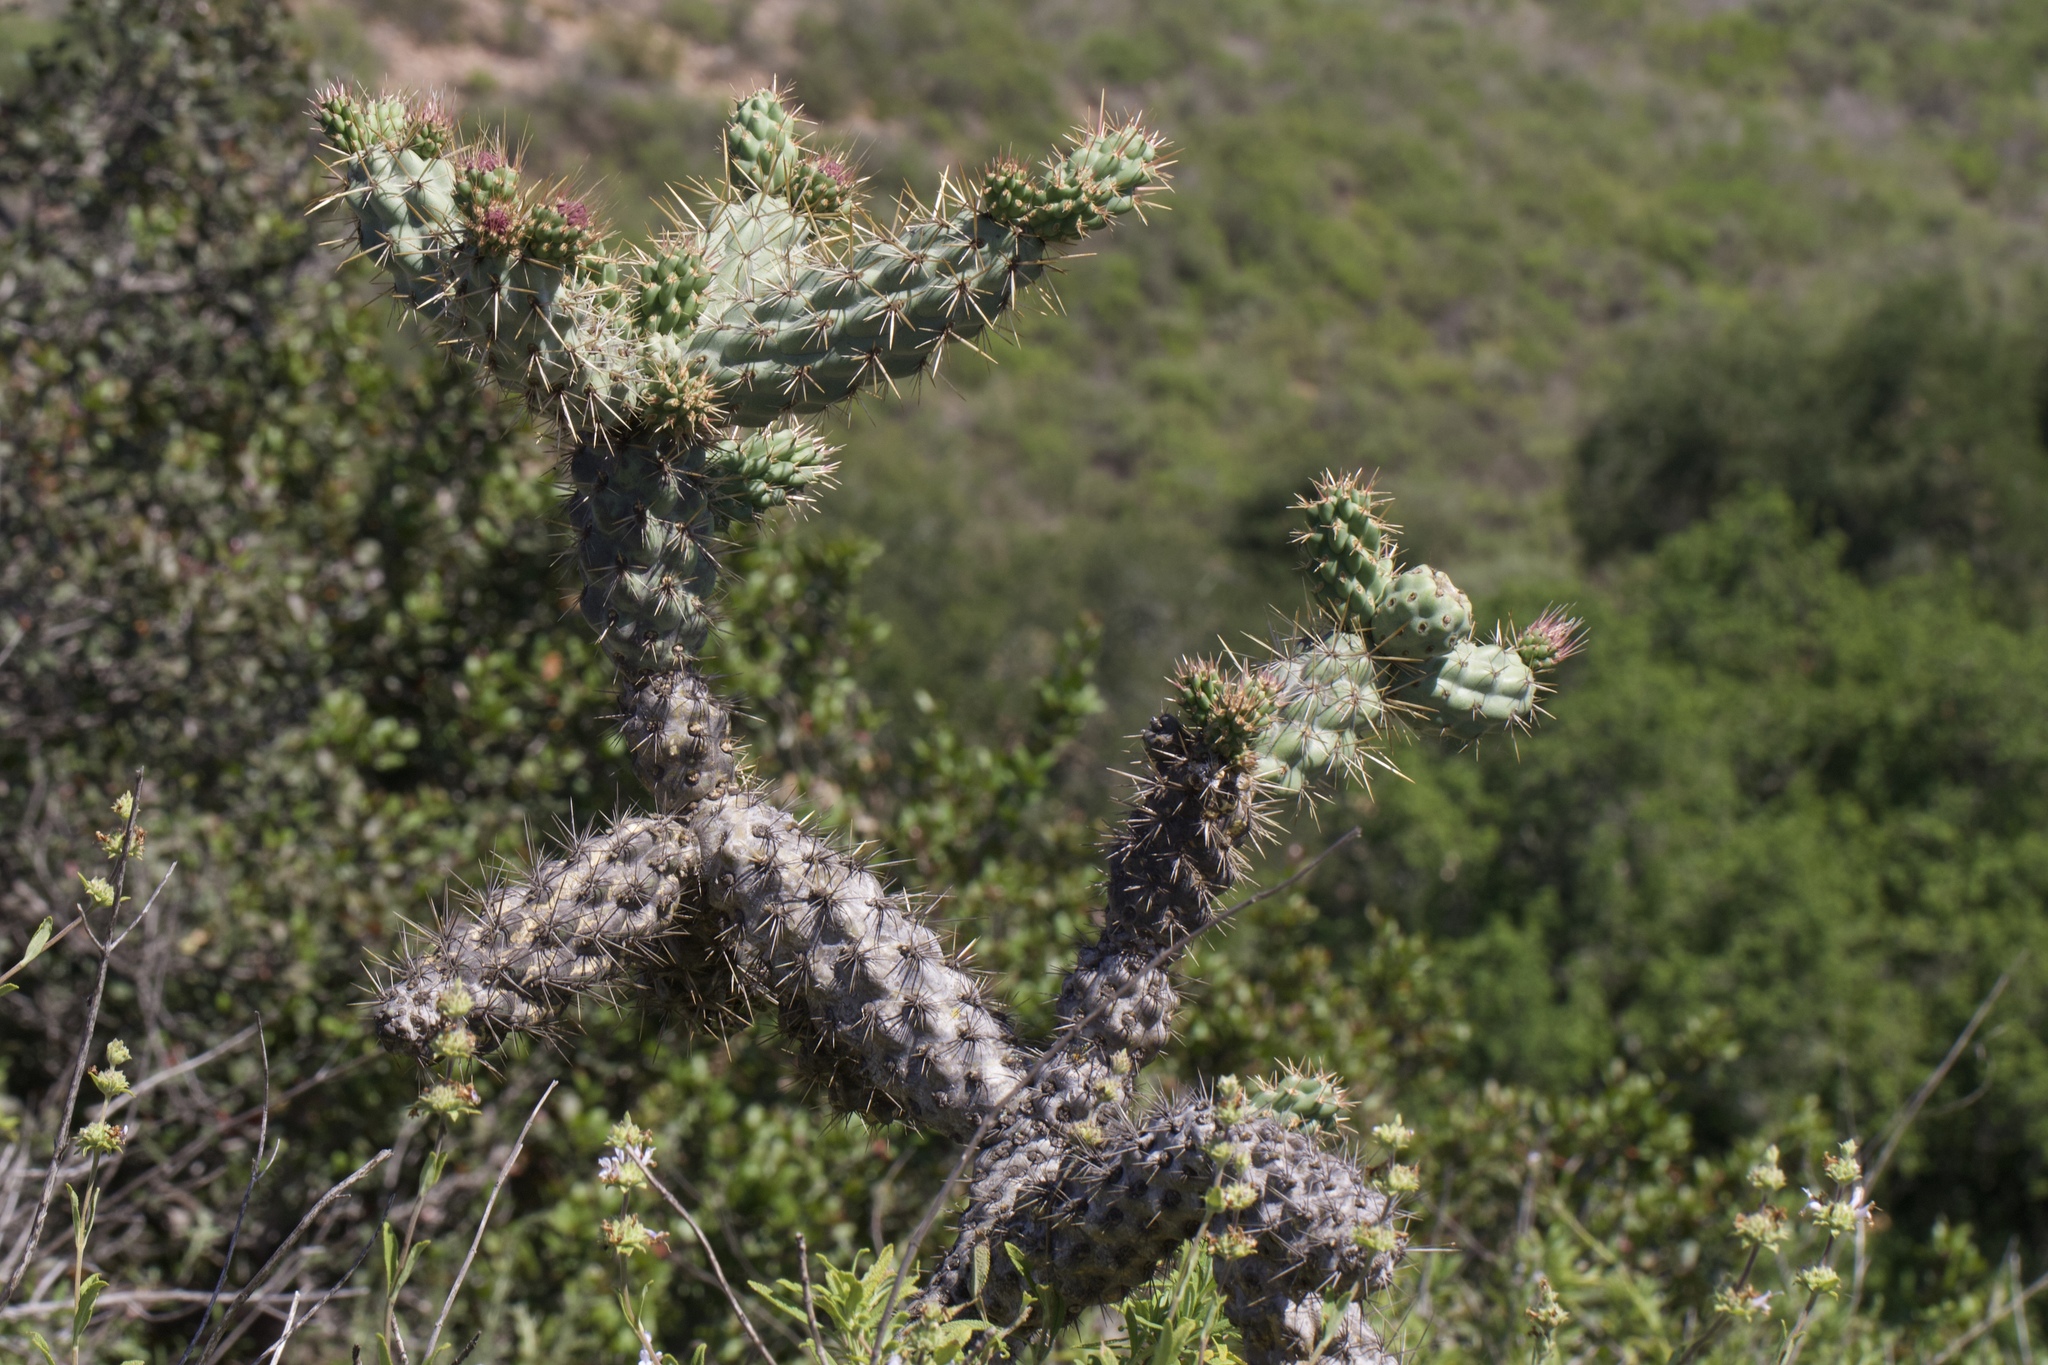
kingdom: Plantae
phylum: Tracheophyta
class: Magnoliopsida
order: Caryophyllales
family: Cactaceae
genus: Cylindropuntia
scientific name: Cylindropuntia prolifera
